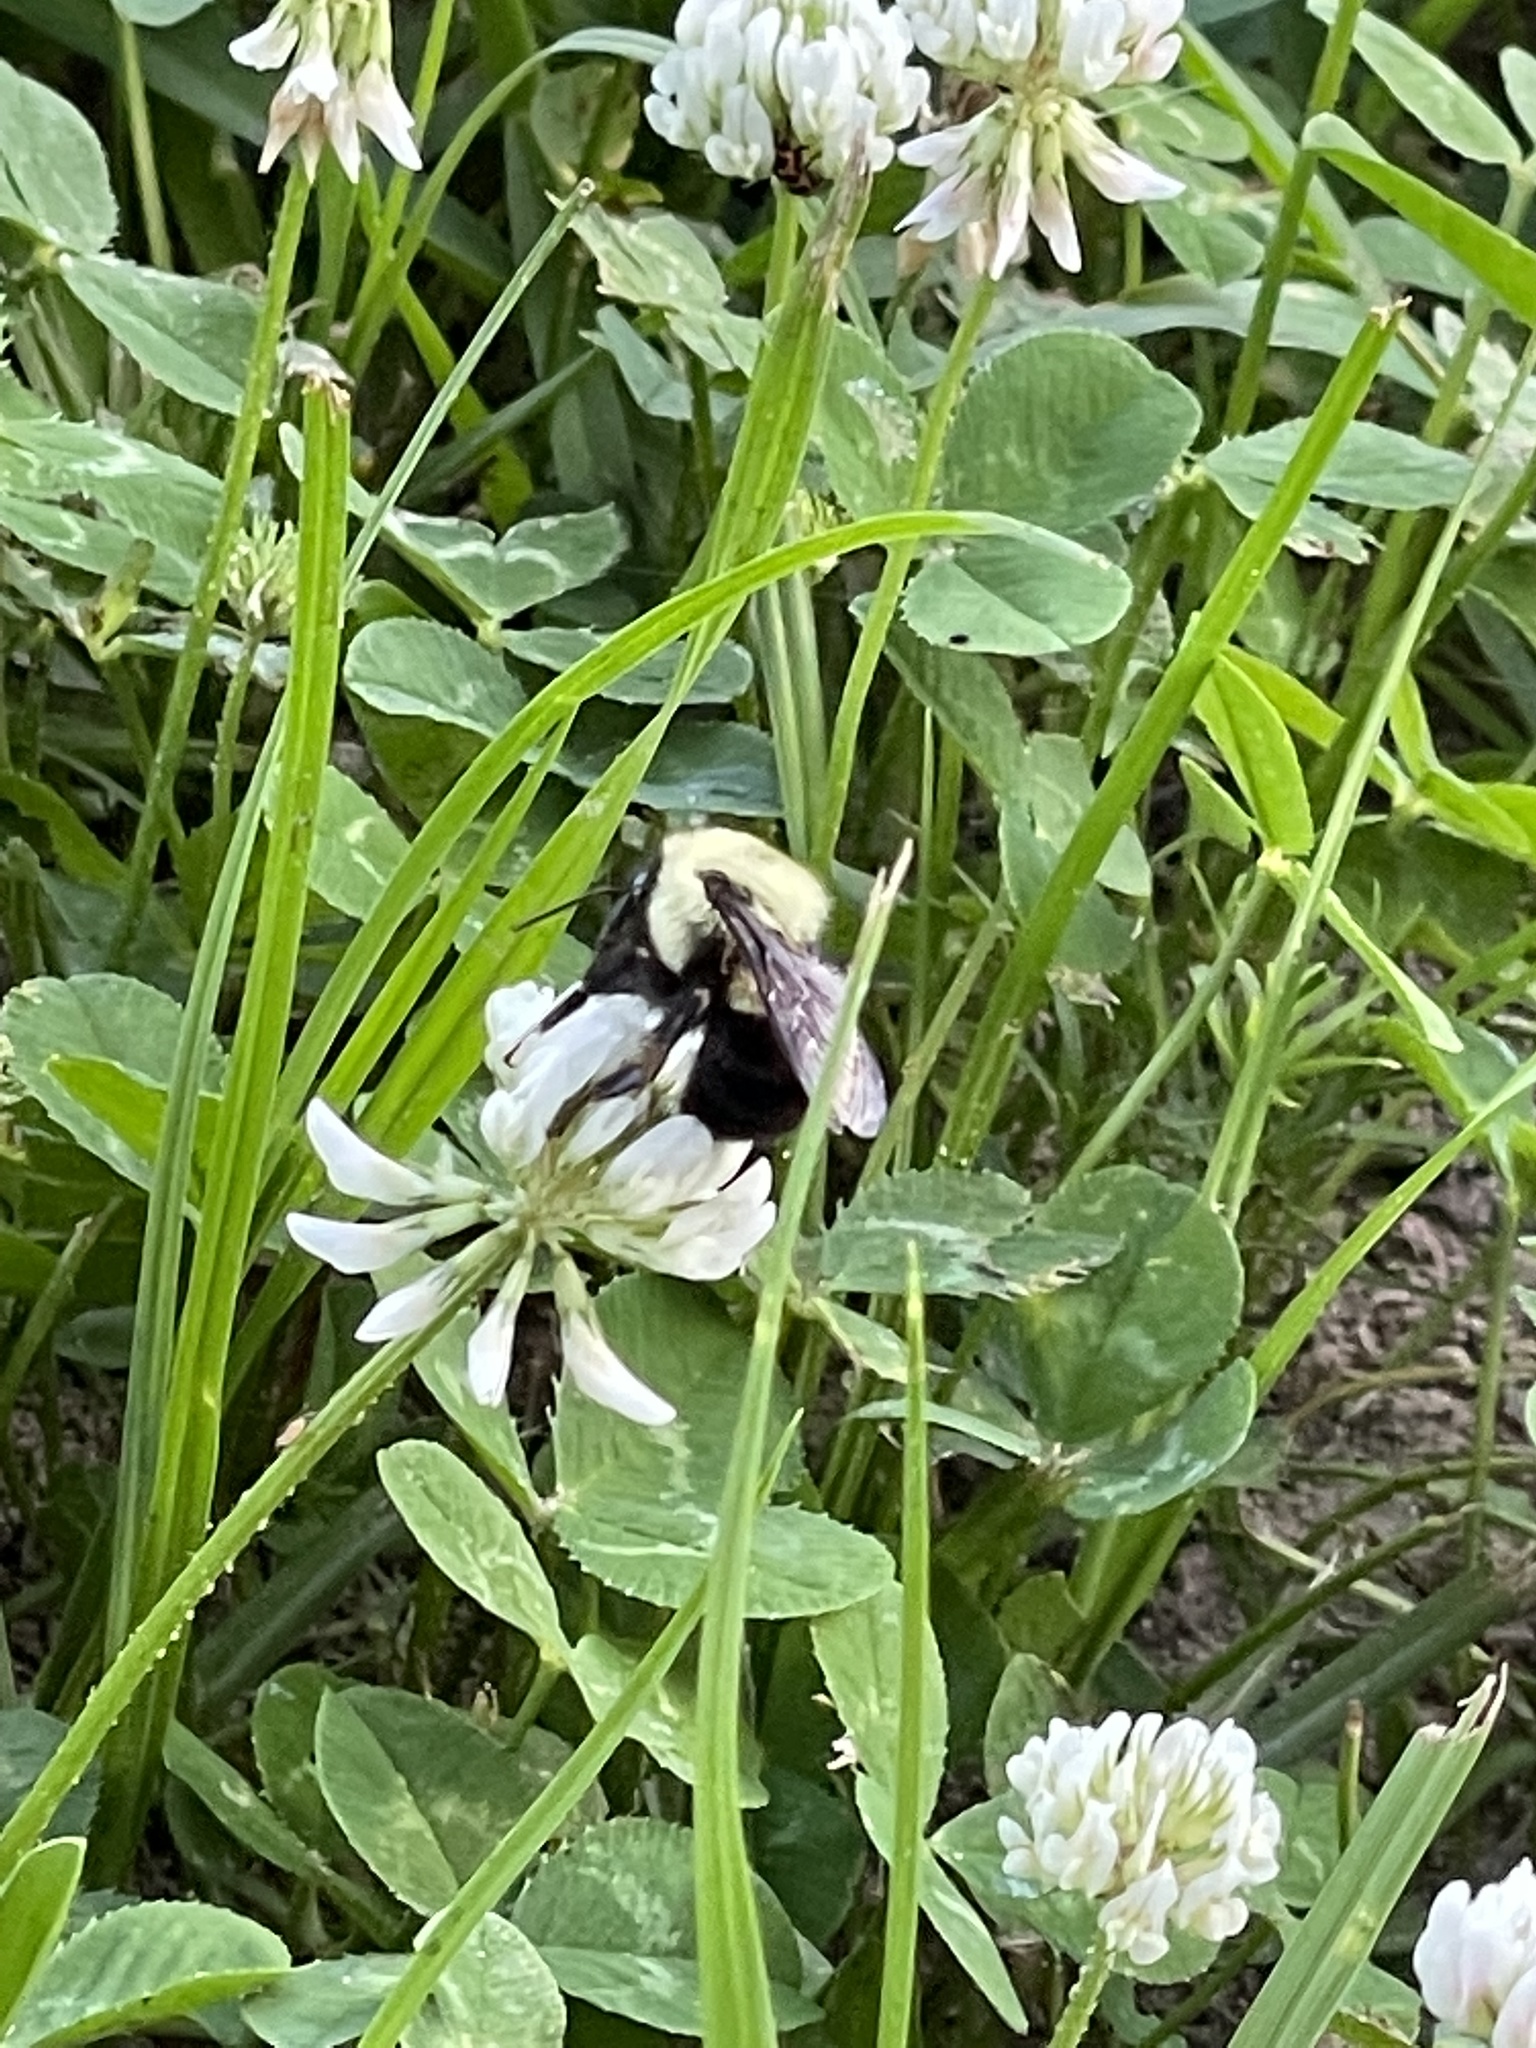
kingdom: Animalia
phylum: Arthropoda
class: Insecta
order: Hymenoptera
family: Apidae
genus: Bombus
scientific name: Bombus bimaculatus
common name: Two-spotted bumble bee
